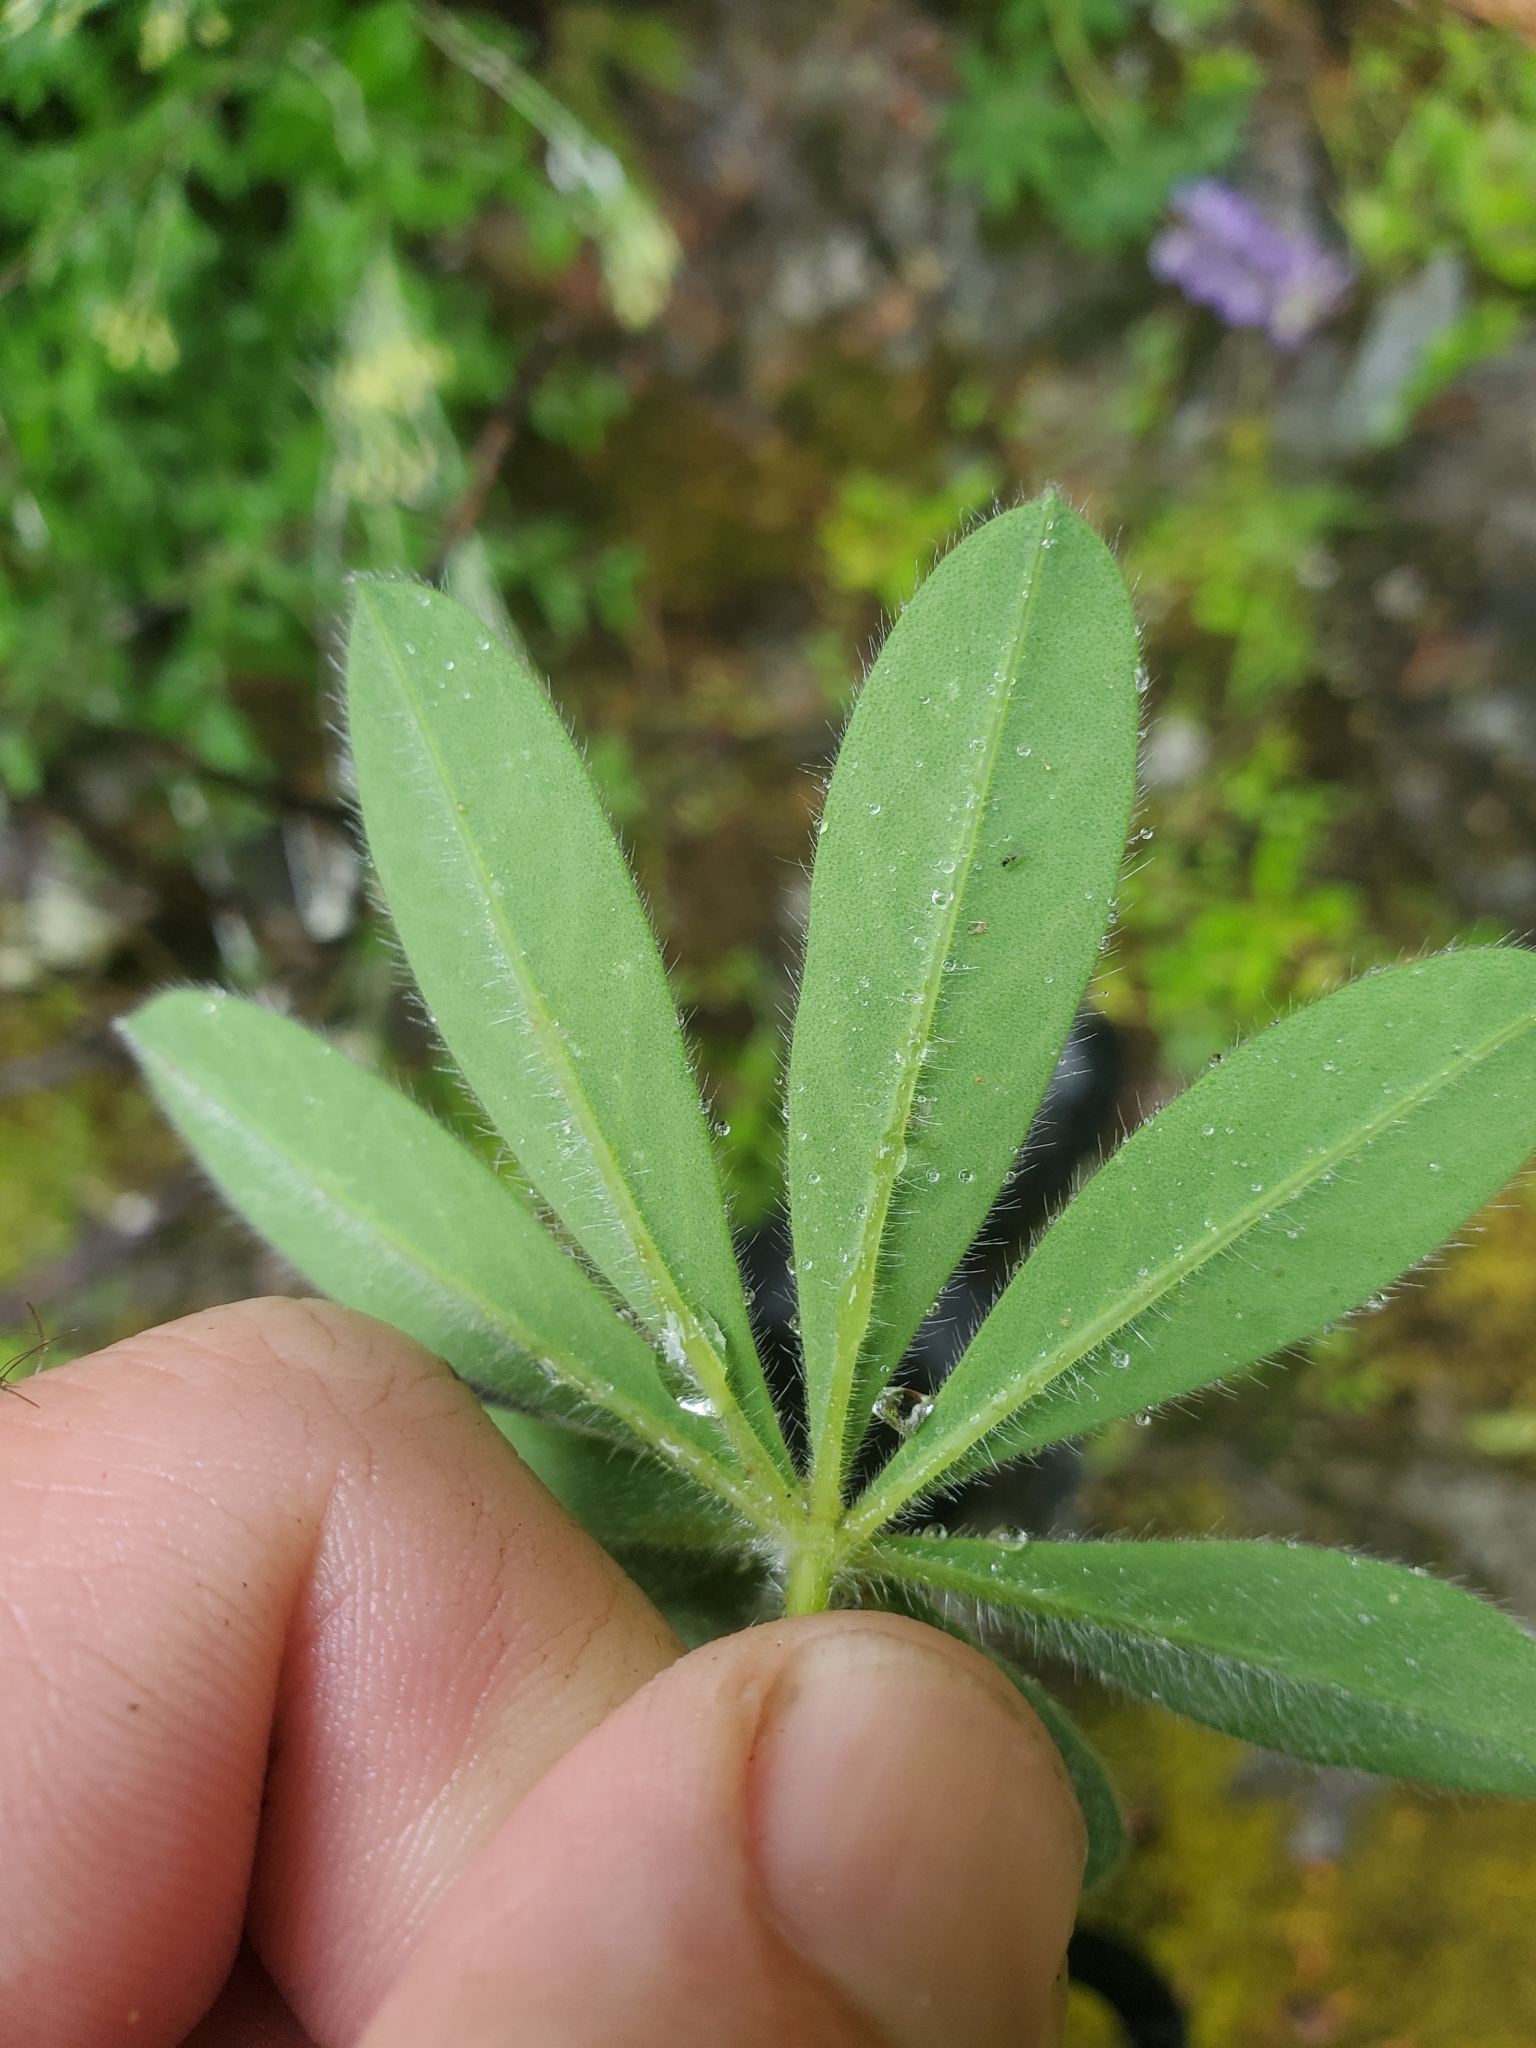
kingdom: Plantae
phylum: Tracheophyta
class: Magnoliopsida
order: Fabales
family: Fabaceae
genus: Lupinus
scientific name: Lupinus latifolius
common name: Broad-leaved lupine
